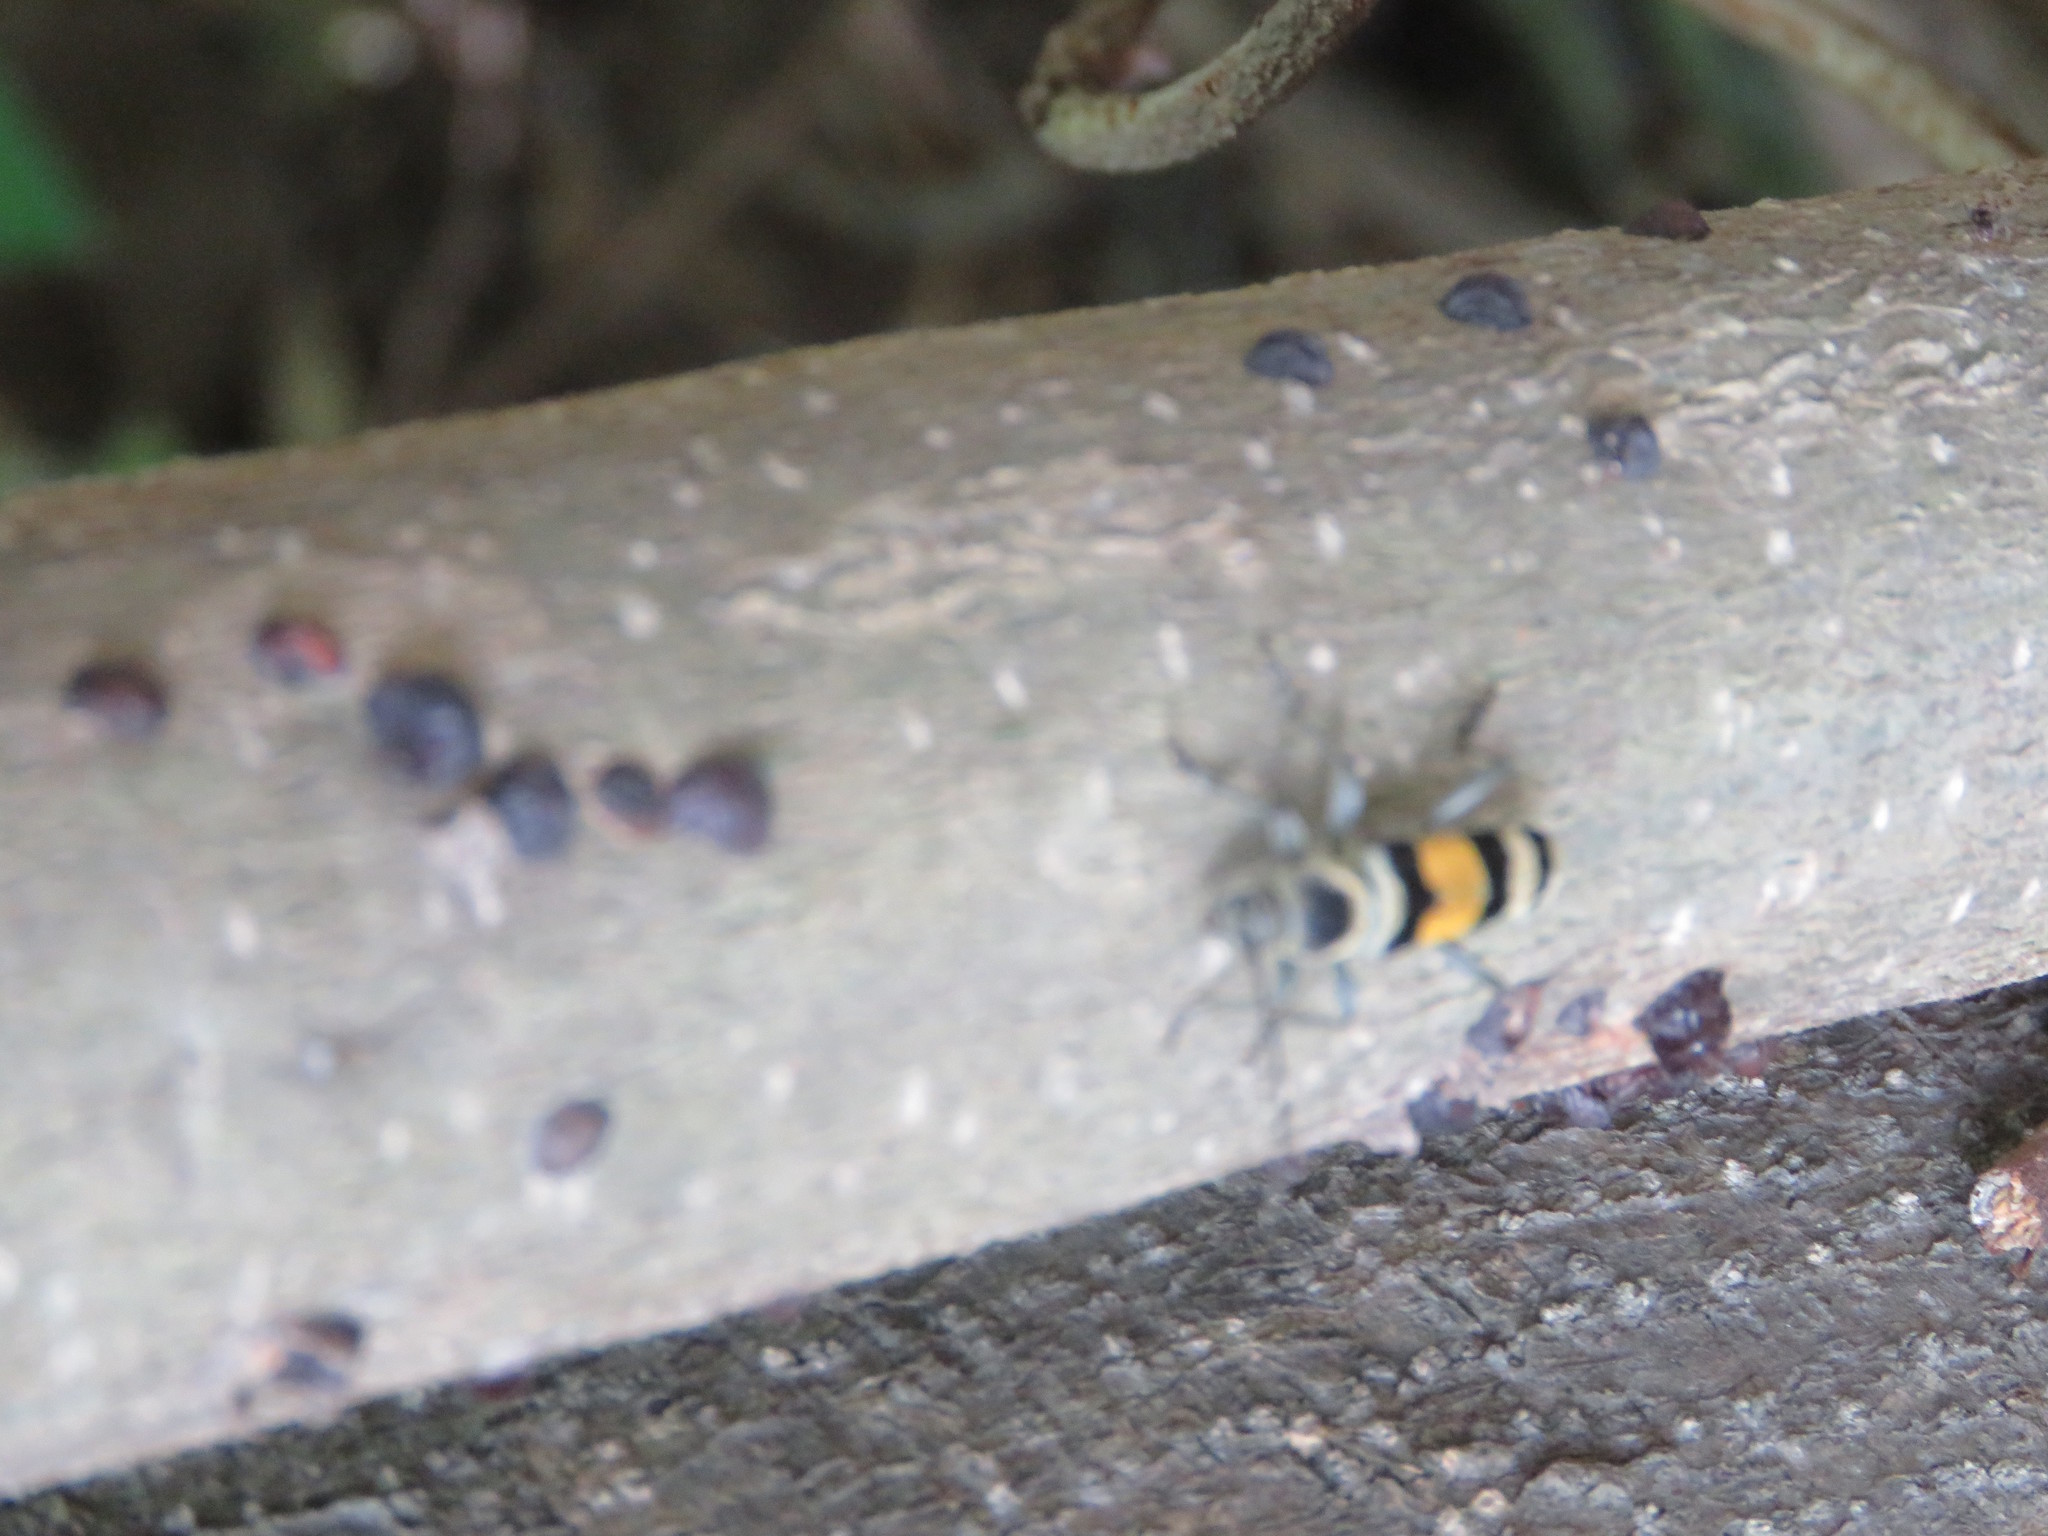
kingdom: Animalia
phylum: Arthropoda
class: Insecta
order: Coleoptera
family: Cerambycidae
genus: Anthoboscus
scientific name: Anthoboscus tricolor
